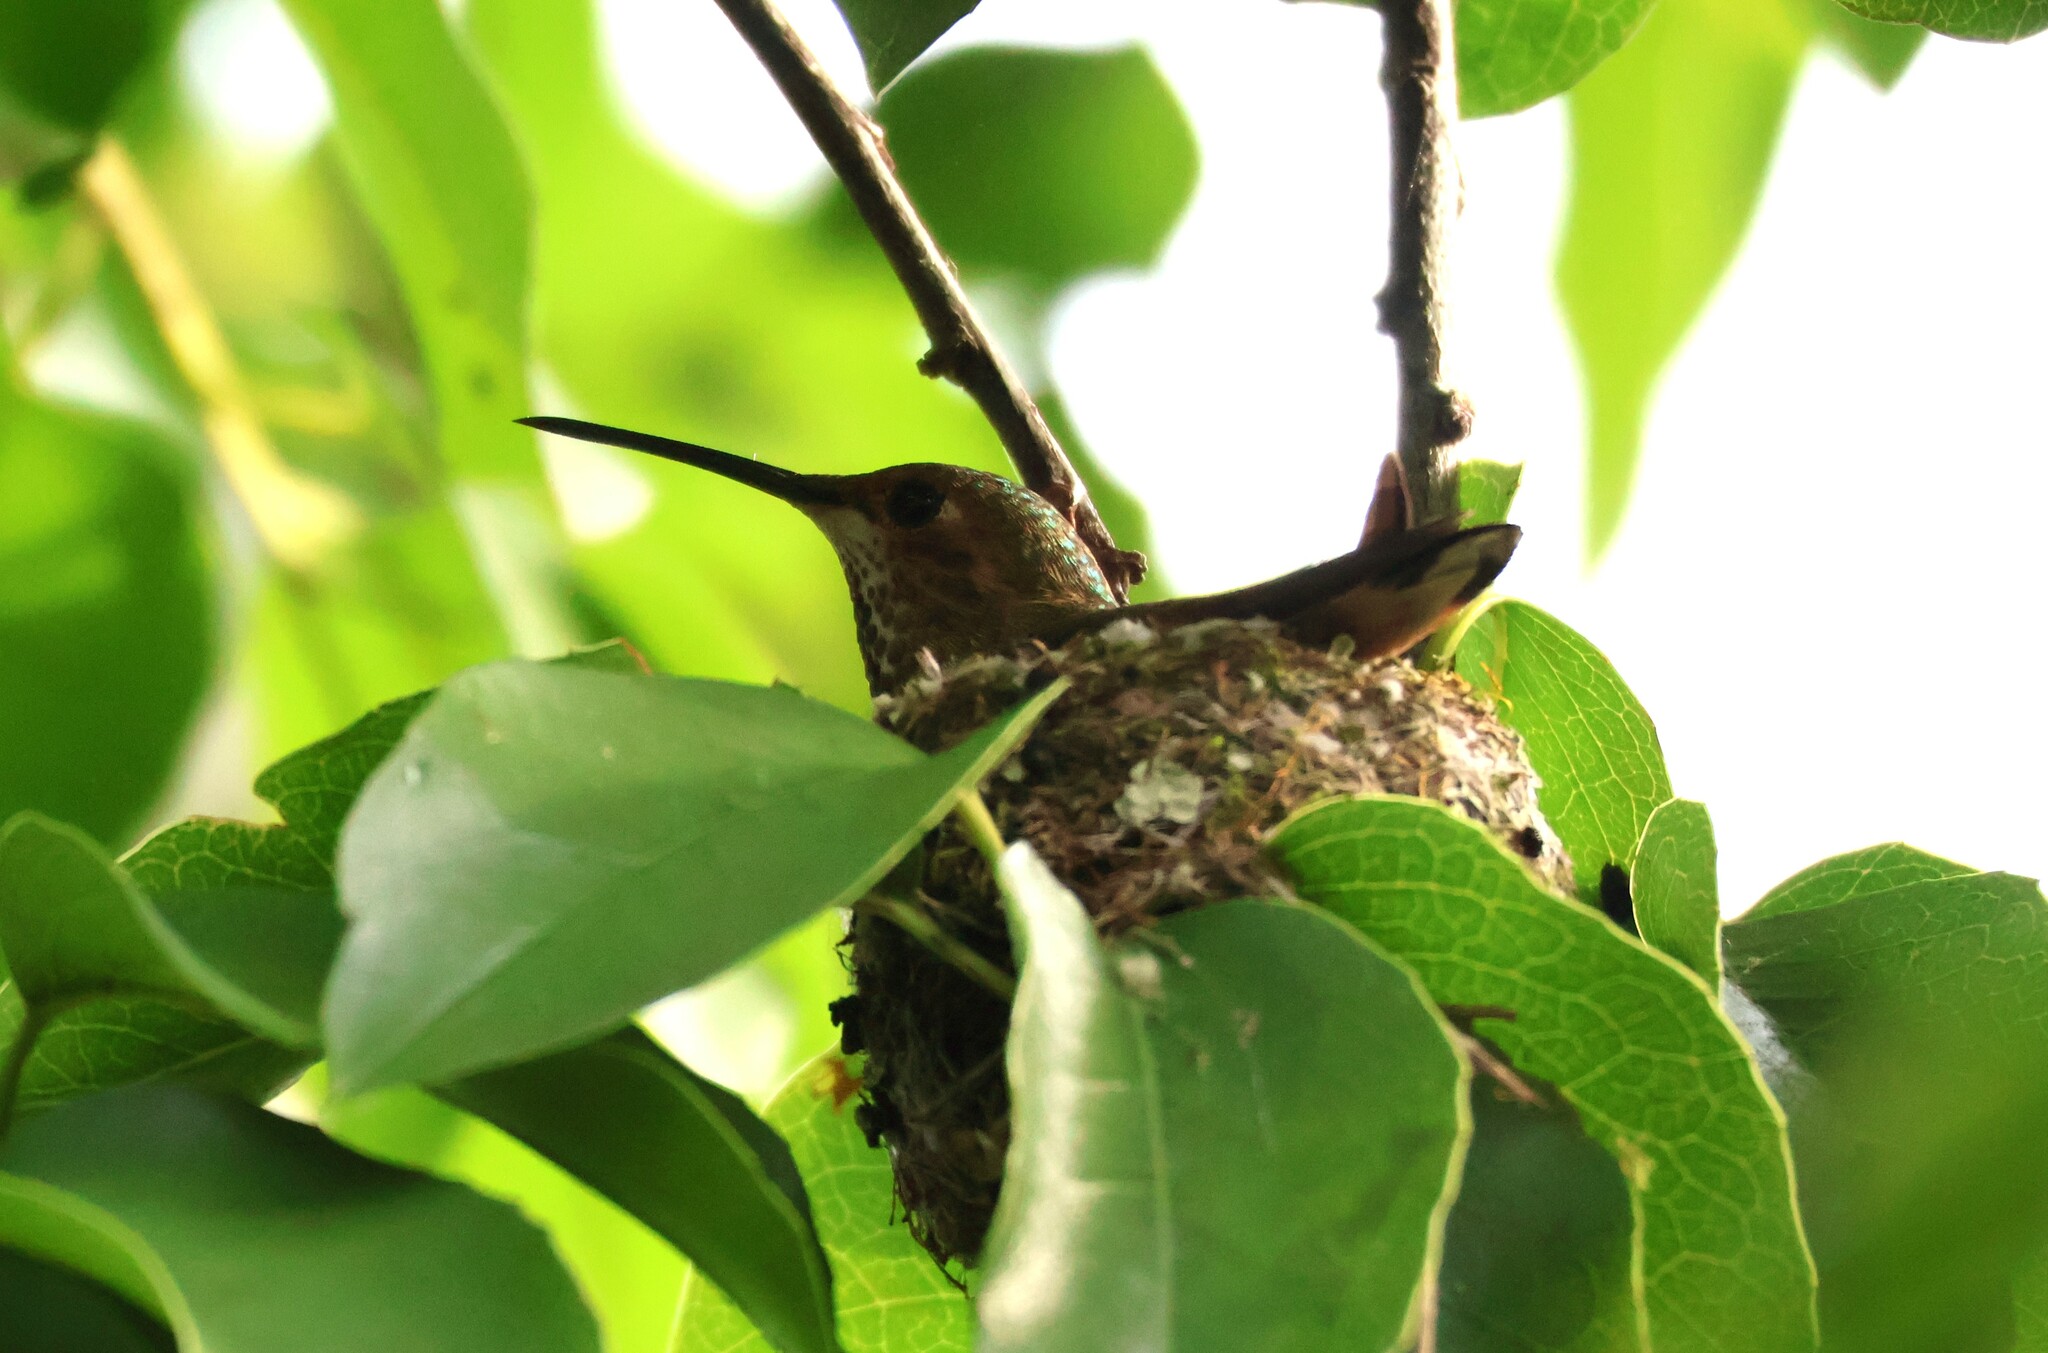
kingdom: Animalia
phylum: Chordata
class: Aves
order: Apodiformes
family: Trochilidae
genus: Selasphorus
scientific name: Selasphorus sasin
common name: Allen's hummingbird
